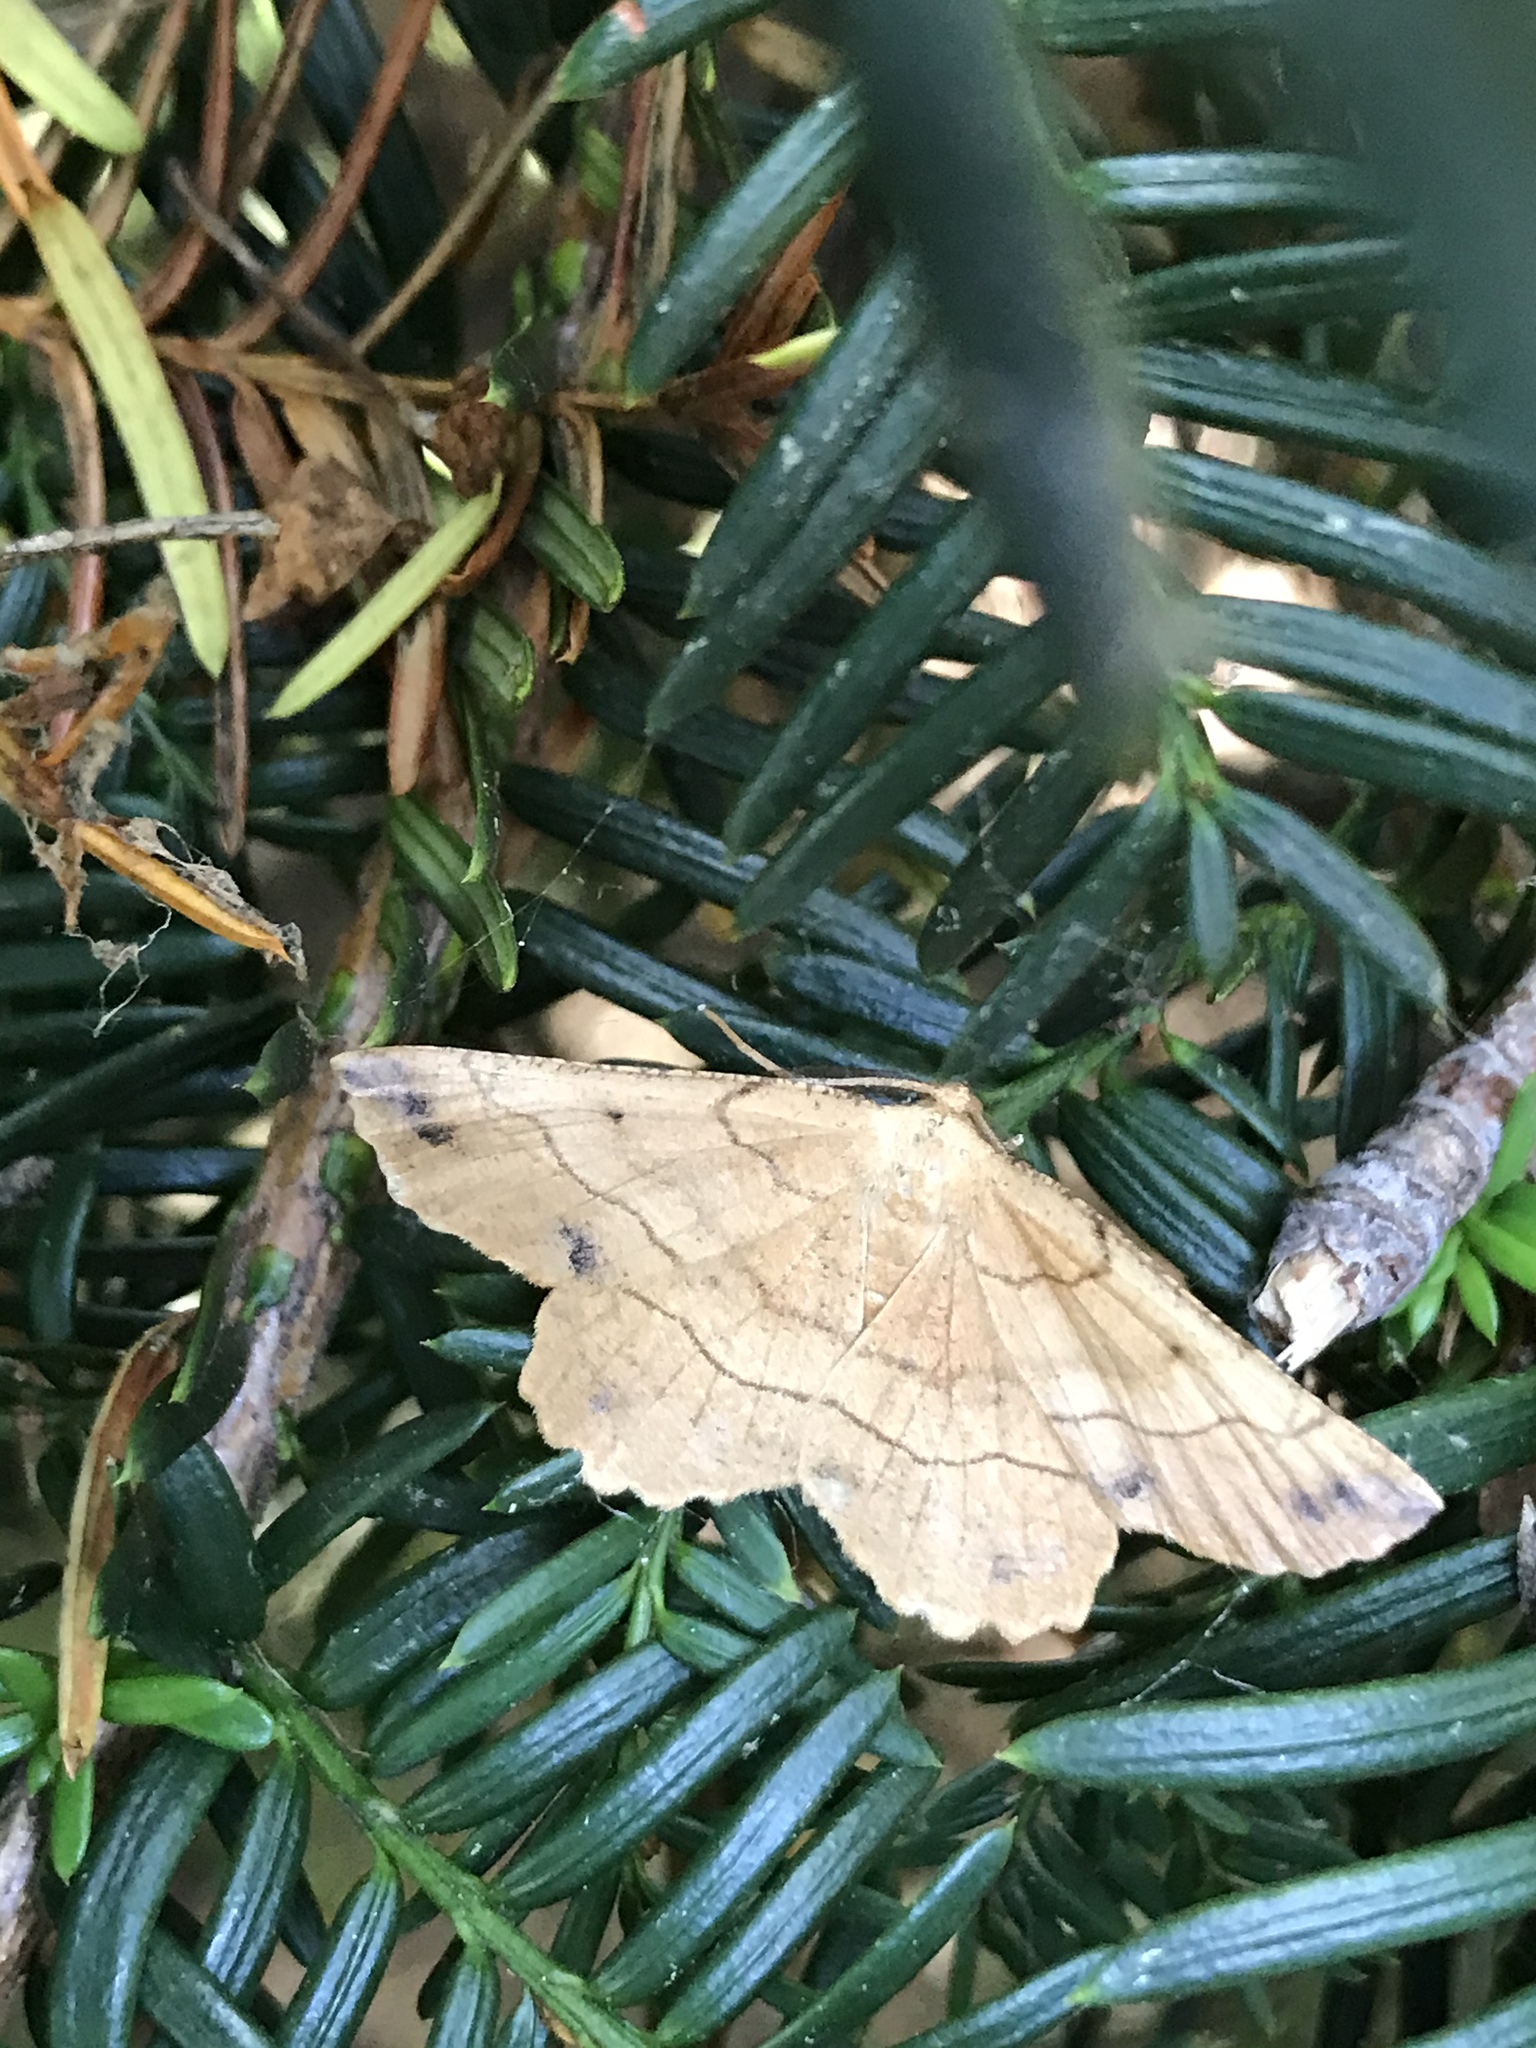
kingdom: Animalia
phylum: Arthropoda
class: Insecta
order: Lepidoptera
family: Geometridae
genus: Euchlaena
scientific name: Euchlaena johnsonaria
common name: Johnson's euchlaena
